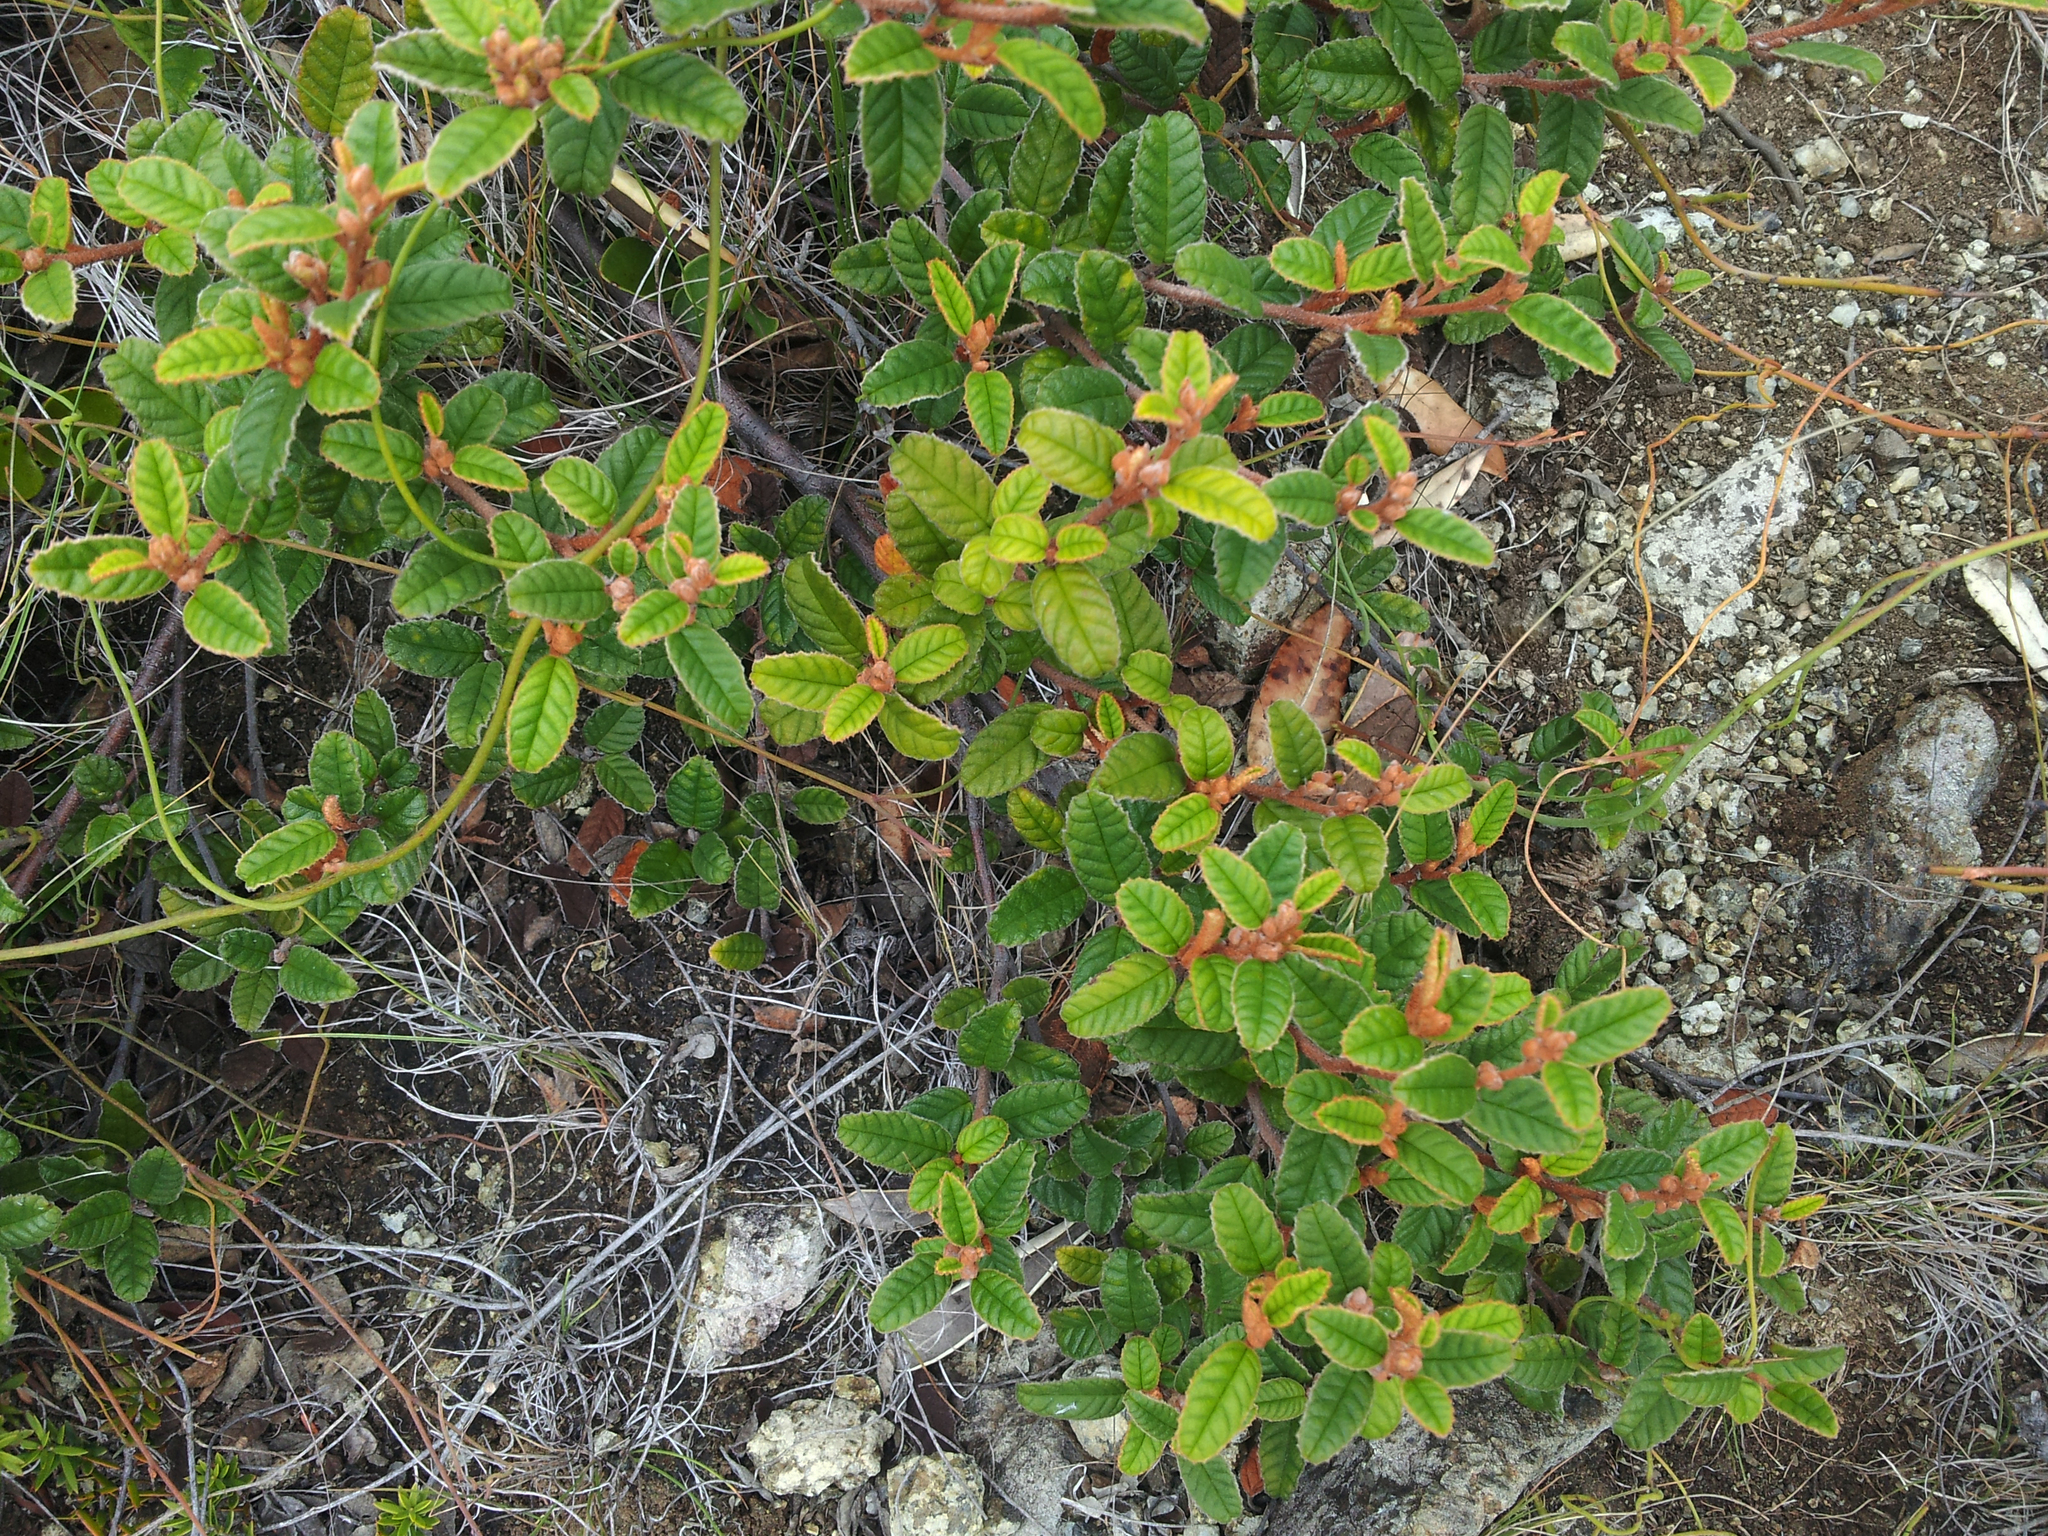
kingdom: Plantae
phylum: Tracheophyta
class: Magnoliopsida
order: Rosales
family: Rhamnaceae
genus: Pomaderris
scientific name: Pomaderris edgerleyi
